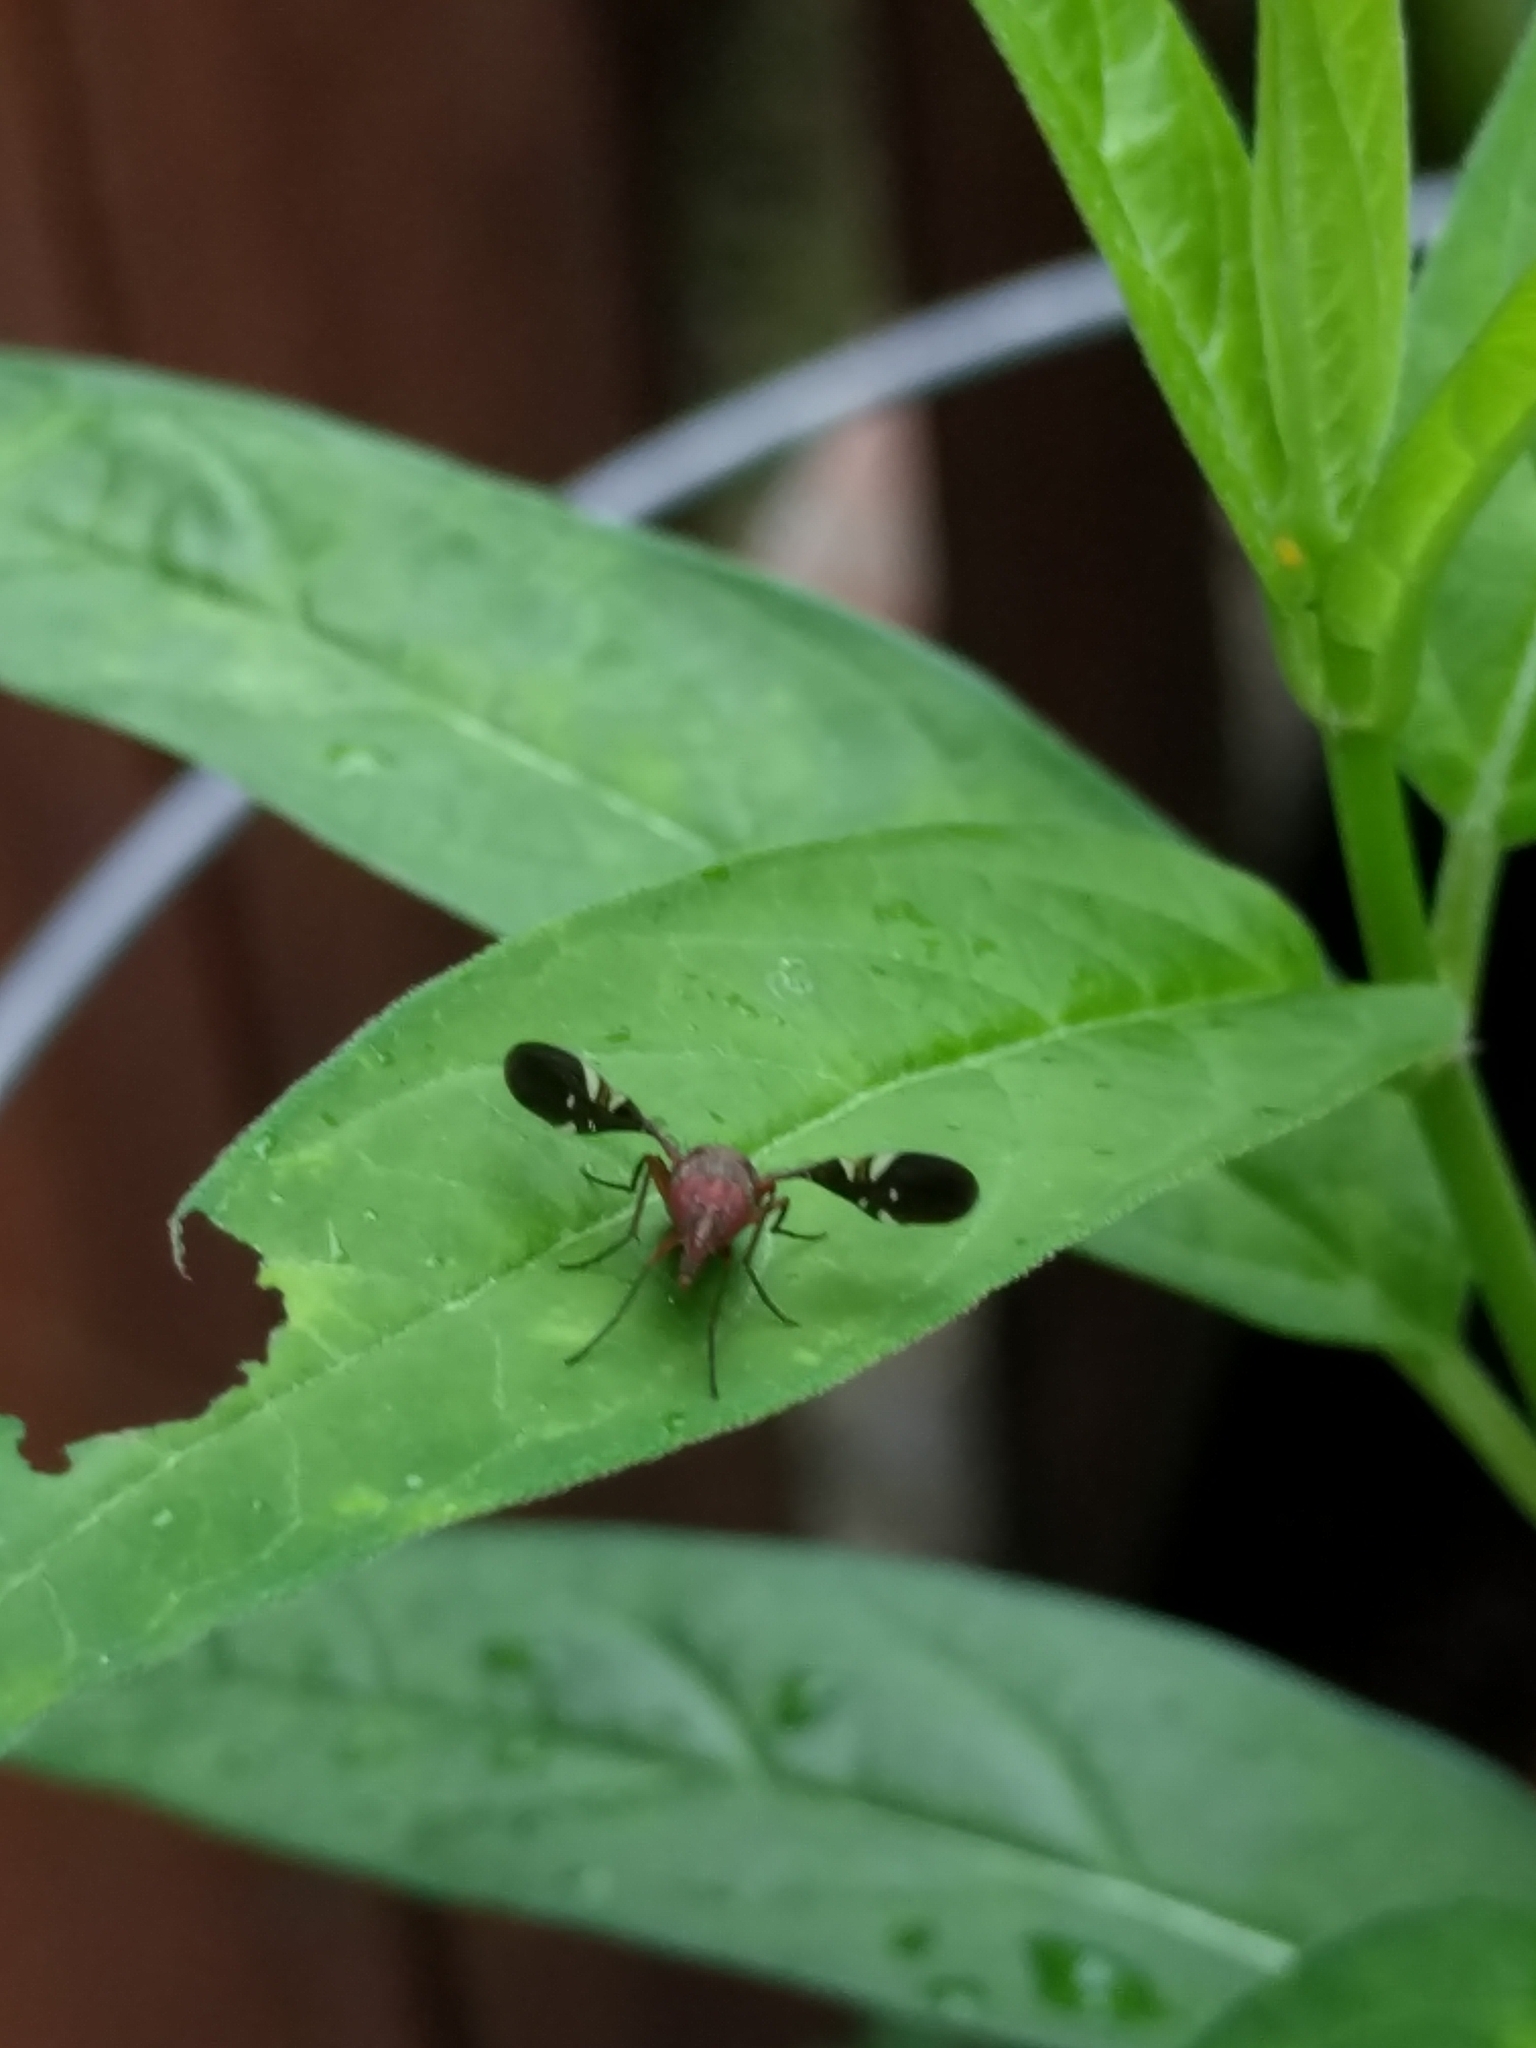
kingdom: Animalia
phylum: Arthropoda
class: Insecta
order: Diptera
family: Ulidiidae
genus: Delphinia
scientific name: Delphinia picta
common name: Common picture-winged fly
